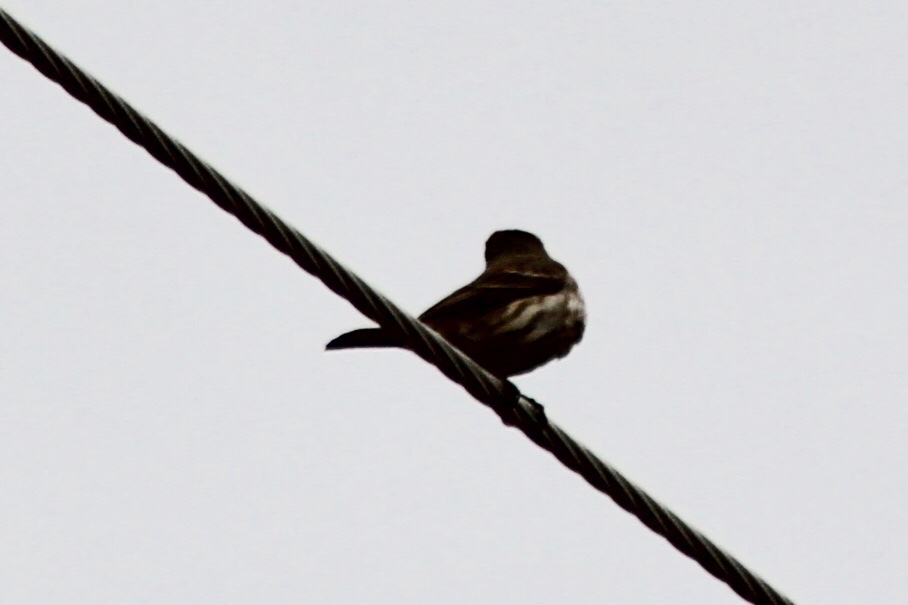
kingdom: Animalia
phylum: Chordata
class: Aves
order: Passeriformes
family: Fringillidae
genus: Haemorhous
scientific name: Haemorhous mexicanus
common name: House finch
